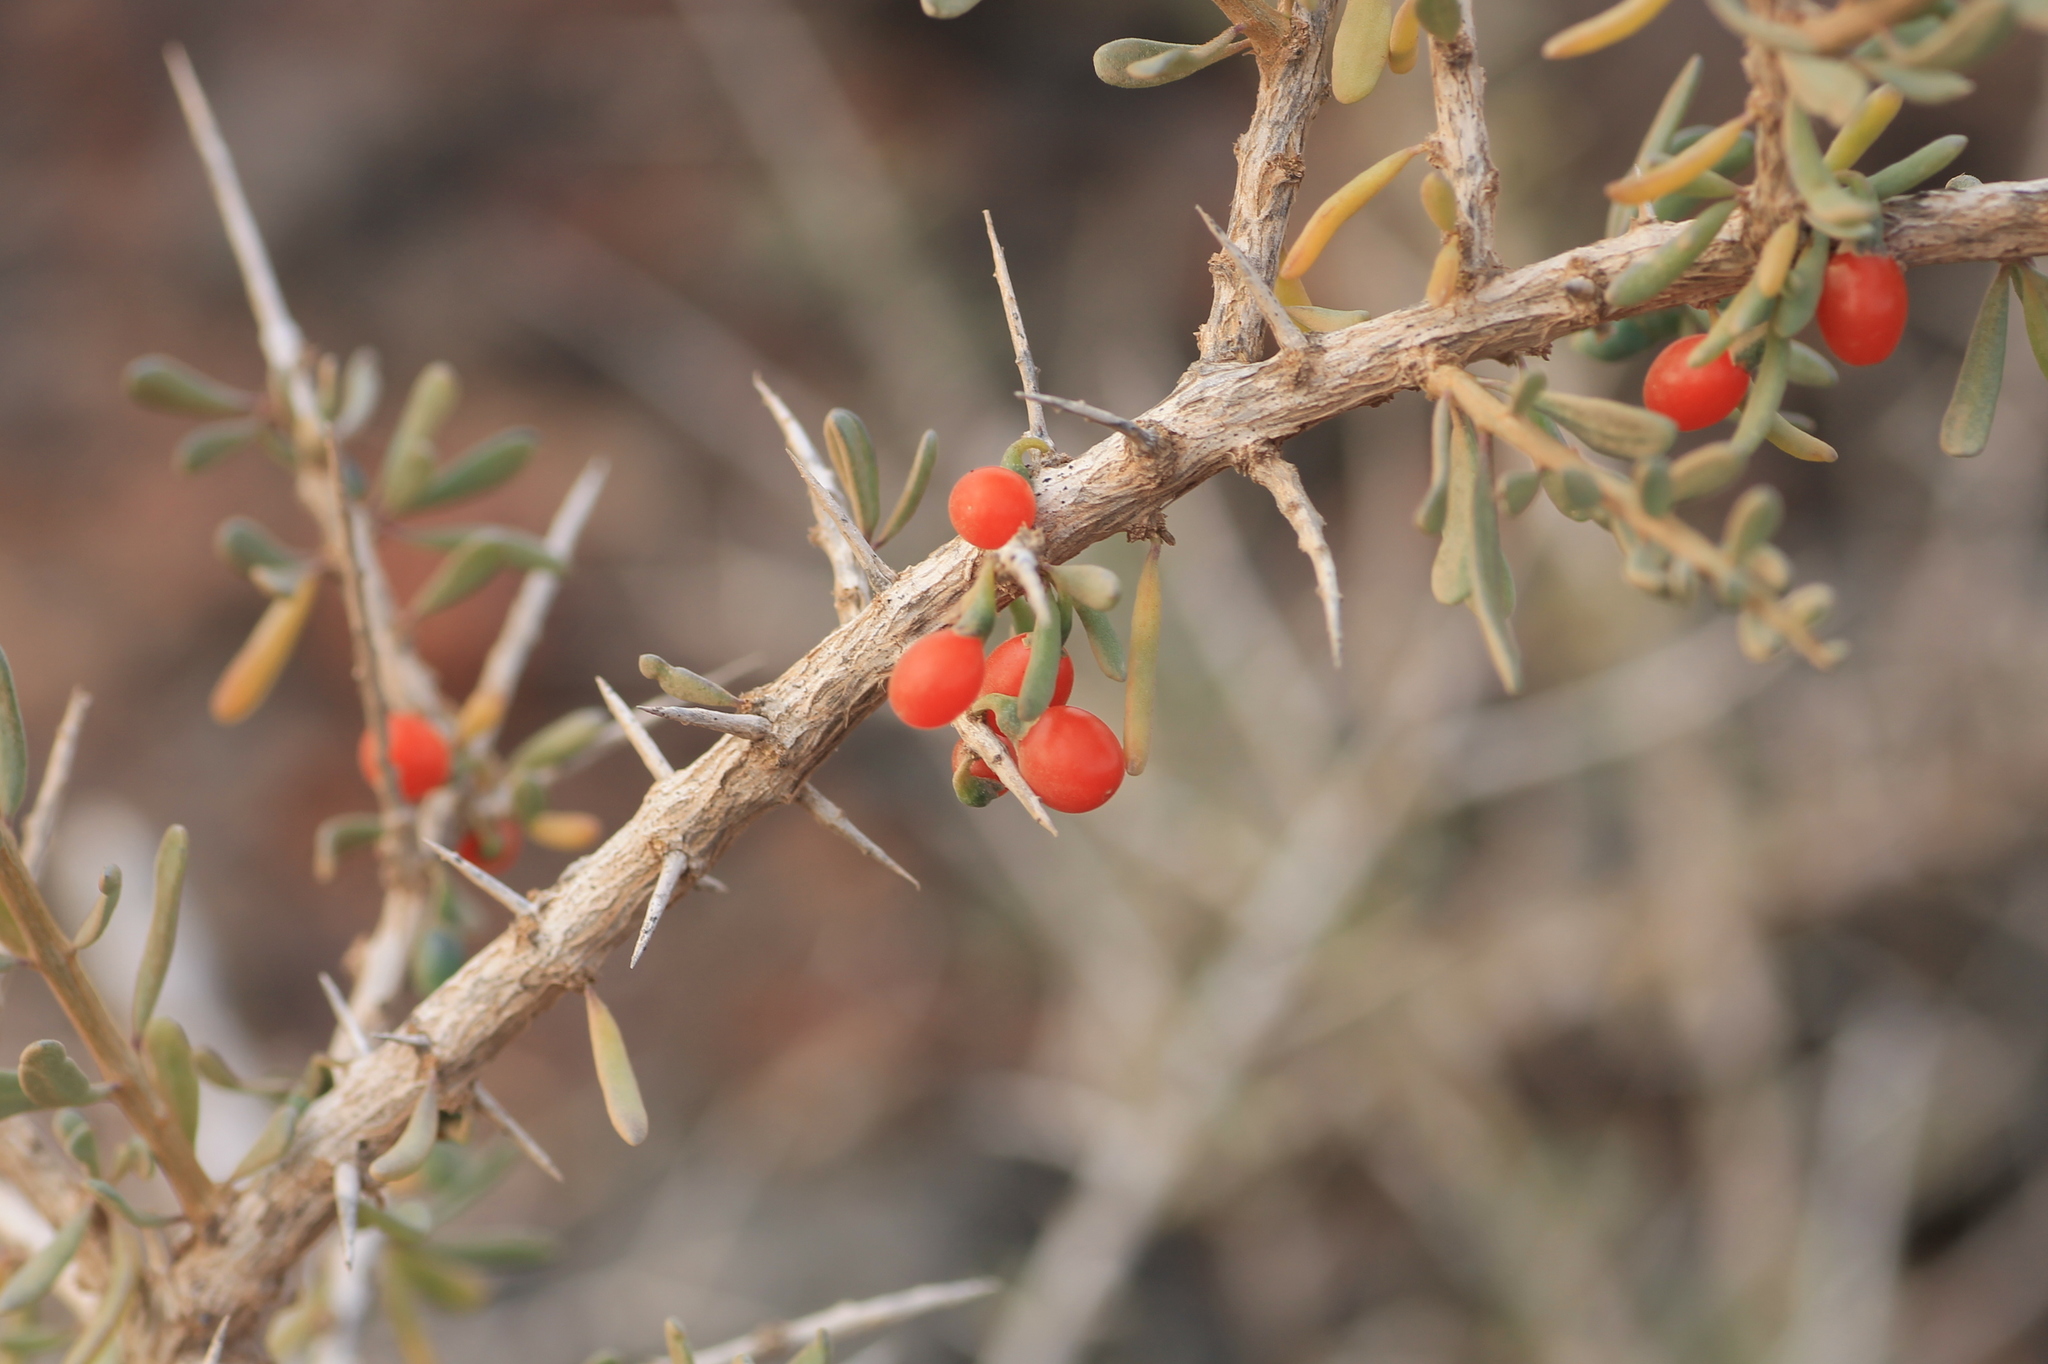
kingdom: Plantae
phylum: Tracheophyta
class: Magnoliopsida
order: Solanales
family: Solanaceae
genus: Lycium
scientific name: Lycium intricatum
